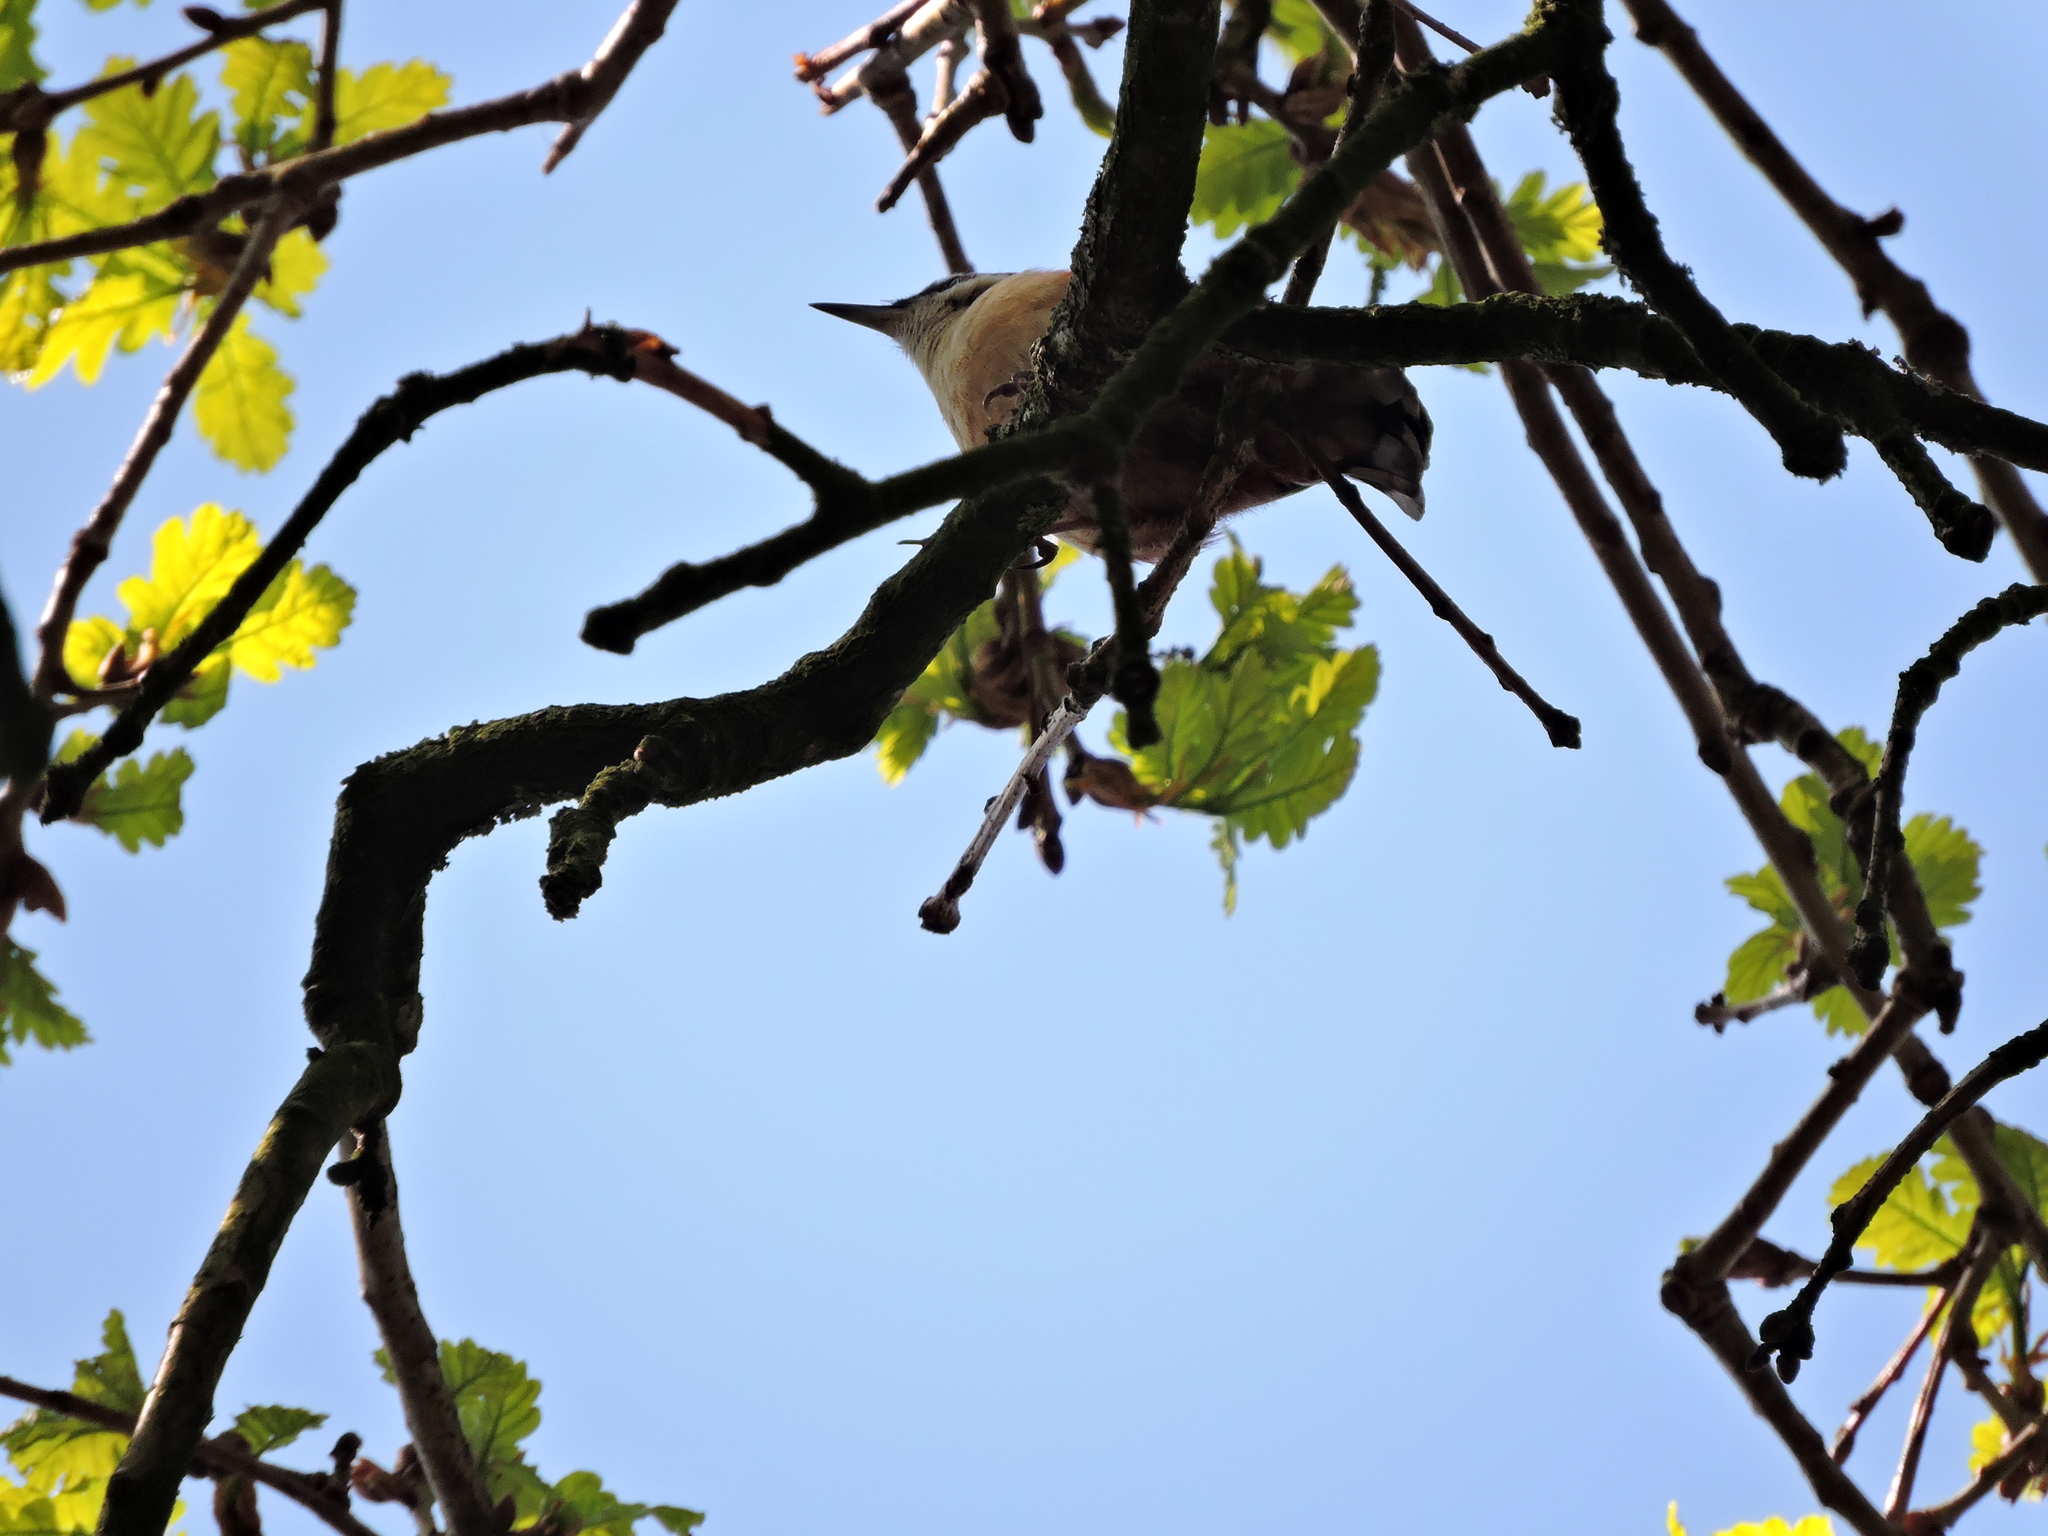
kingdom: Animalia
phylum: Chordata
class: Aves
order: Passeriformes
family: Sittidae
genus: Sitta
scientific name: Sitta europaea
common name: Eurasian nuthatch
